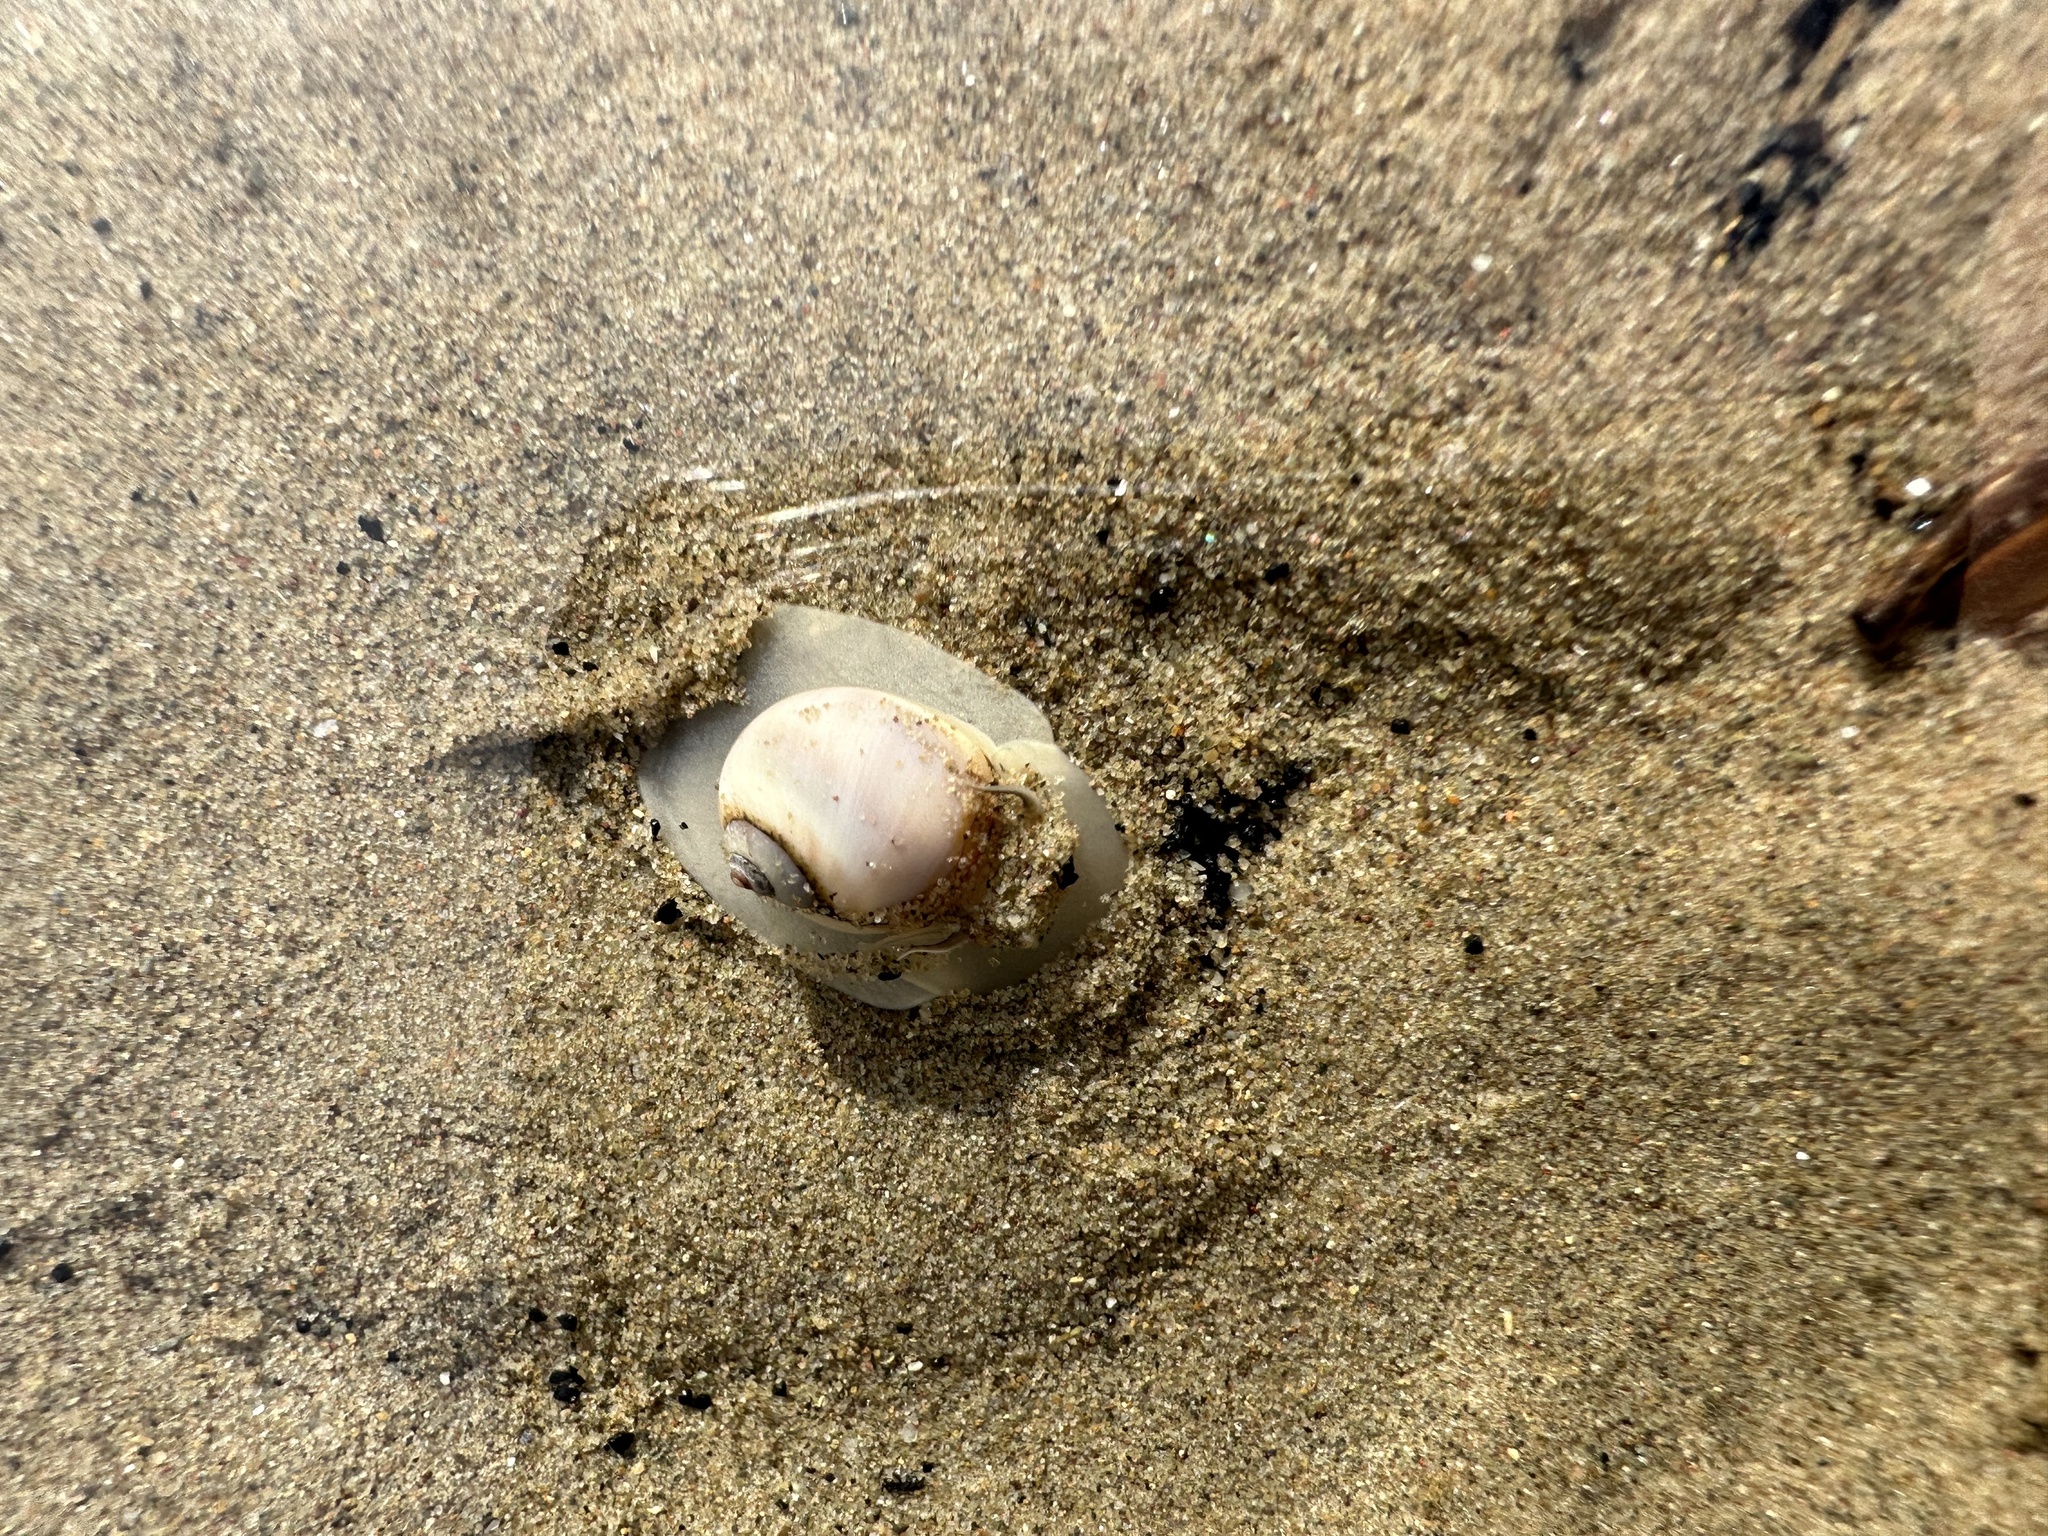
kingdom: Animalia
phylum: Mollusca
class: Gastropoda
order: Littorinimorpha
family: Naticidae
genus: Euspira
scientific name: Euspira heros
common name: Common northern moonsnail
